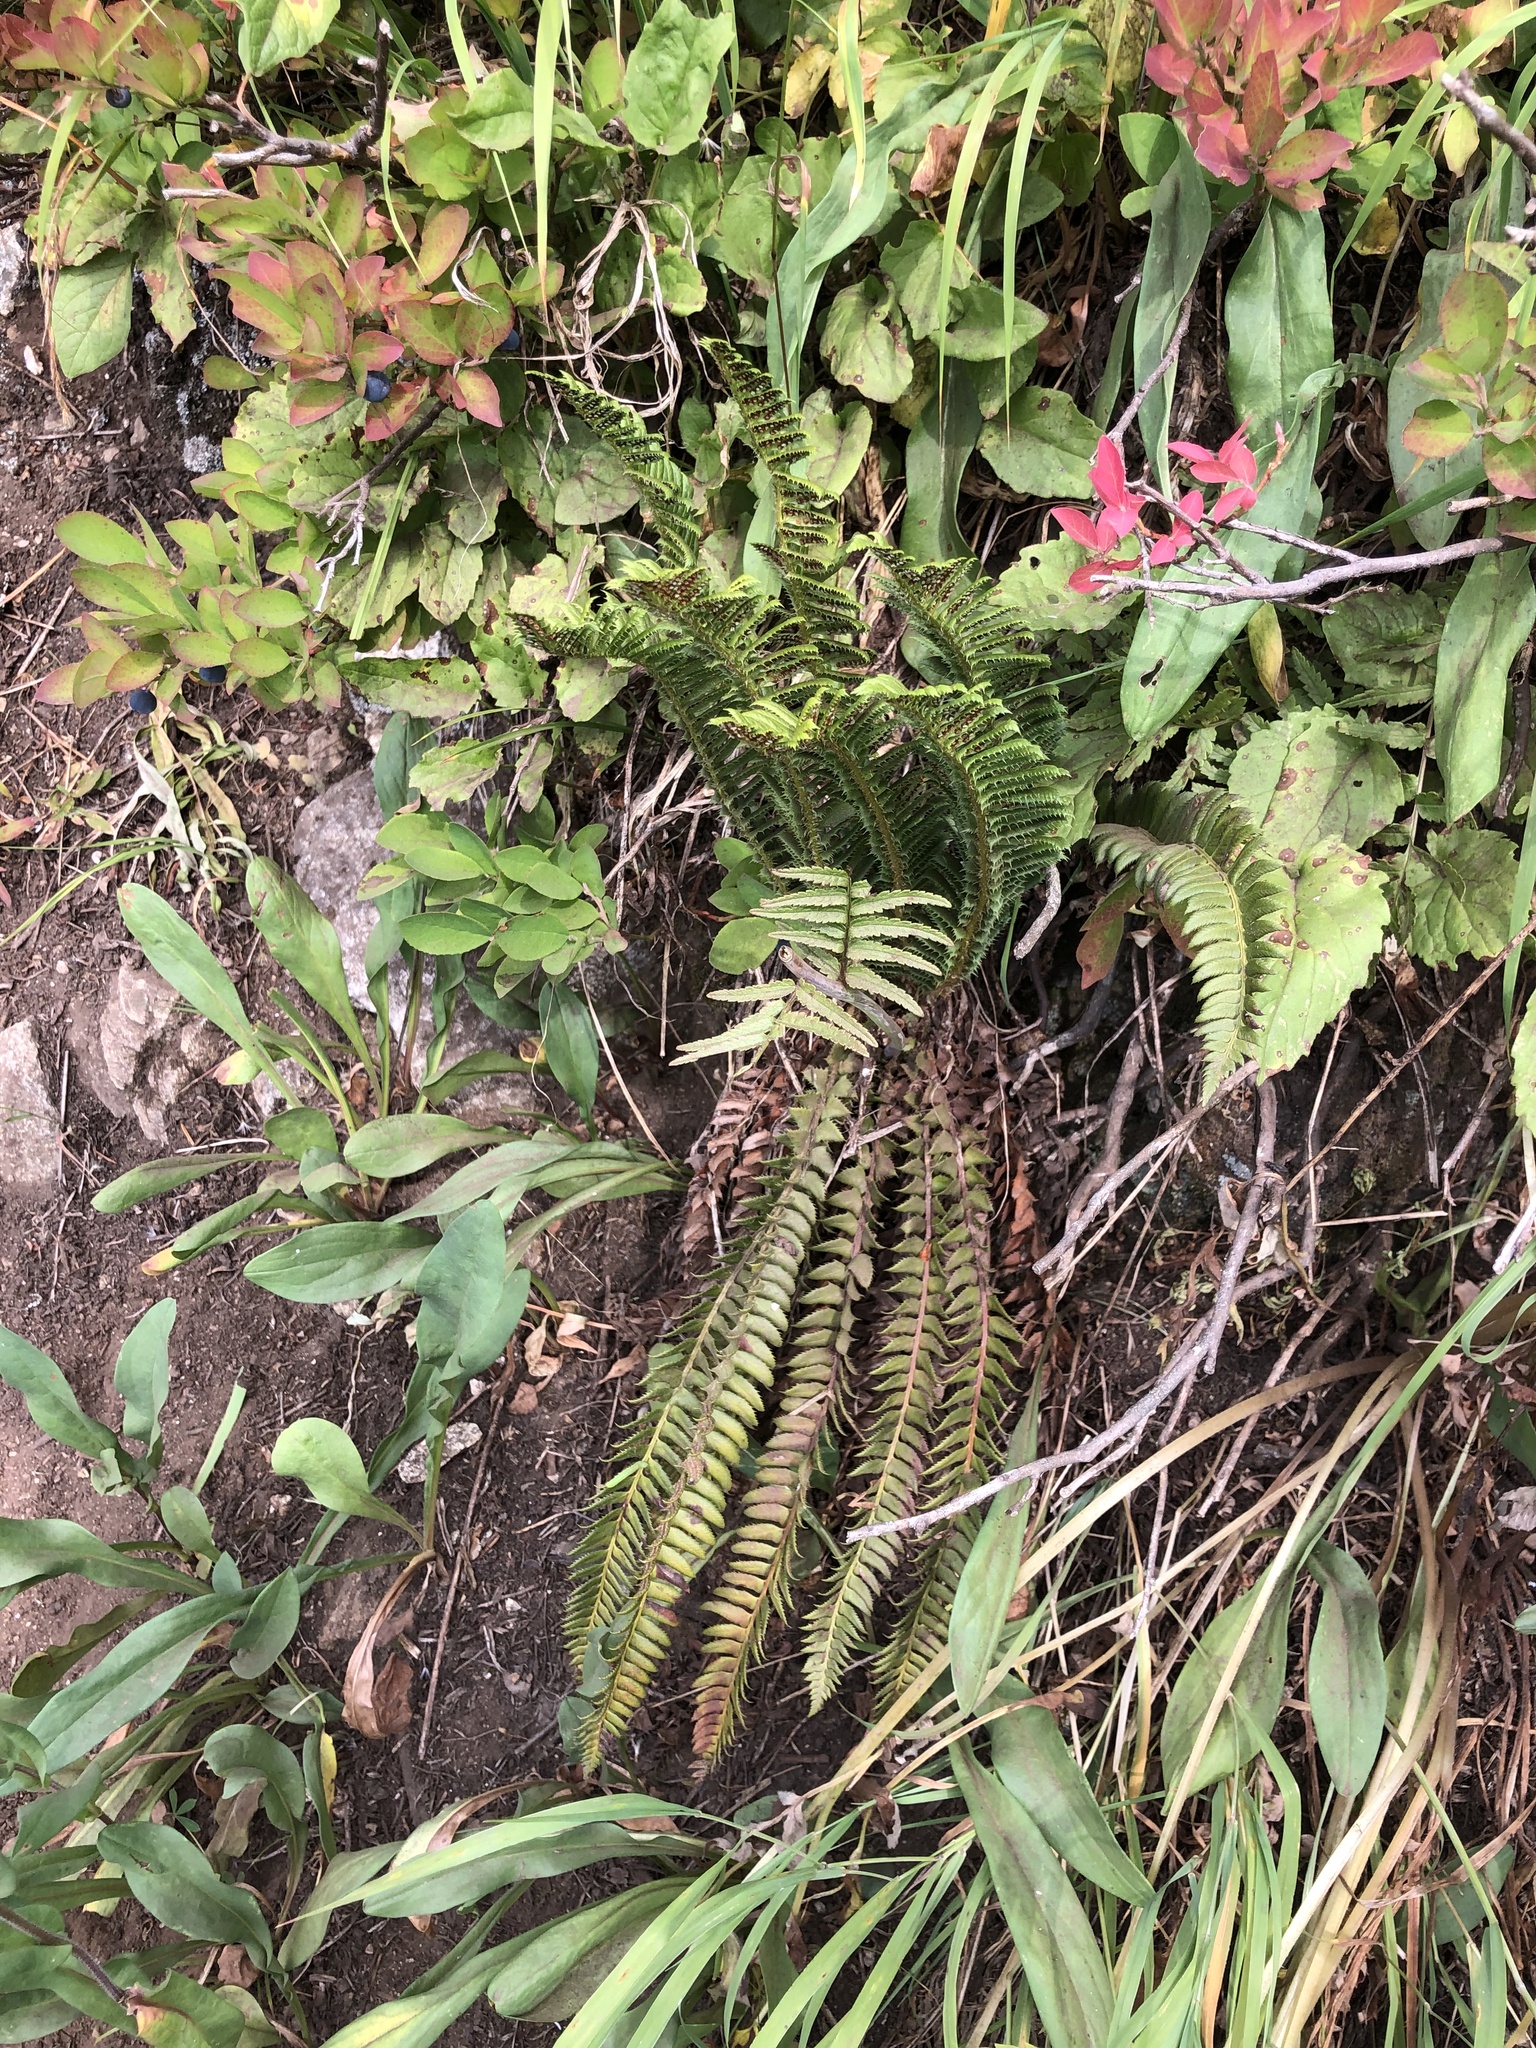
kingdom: Plantae
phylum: Tracheophyta
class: Polypodiopsida
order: Polypodiales
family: Dryopteridaceae
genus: Polystichum
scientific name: Polystichum lonchitis
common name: Holly fern
